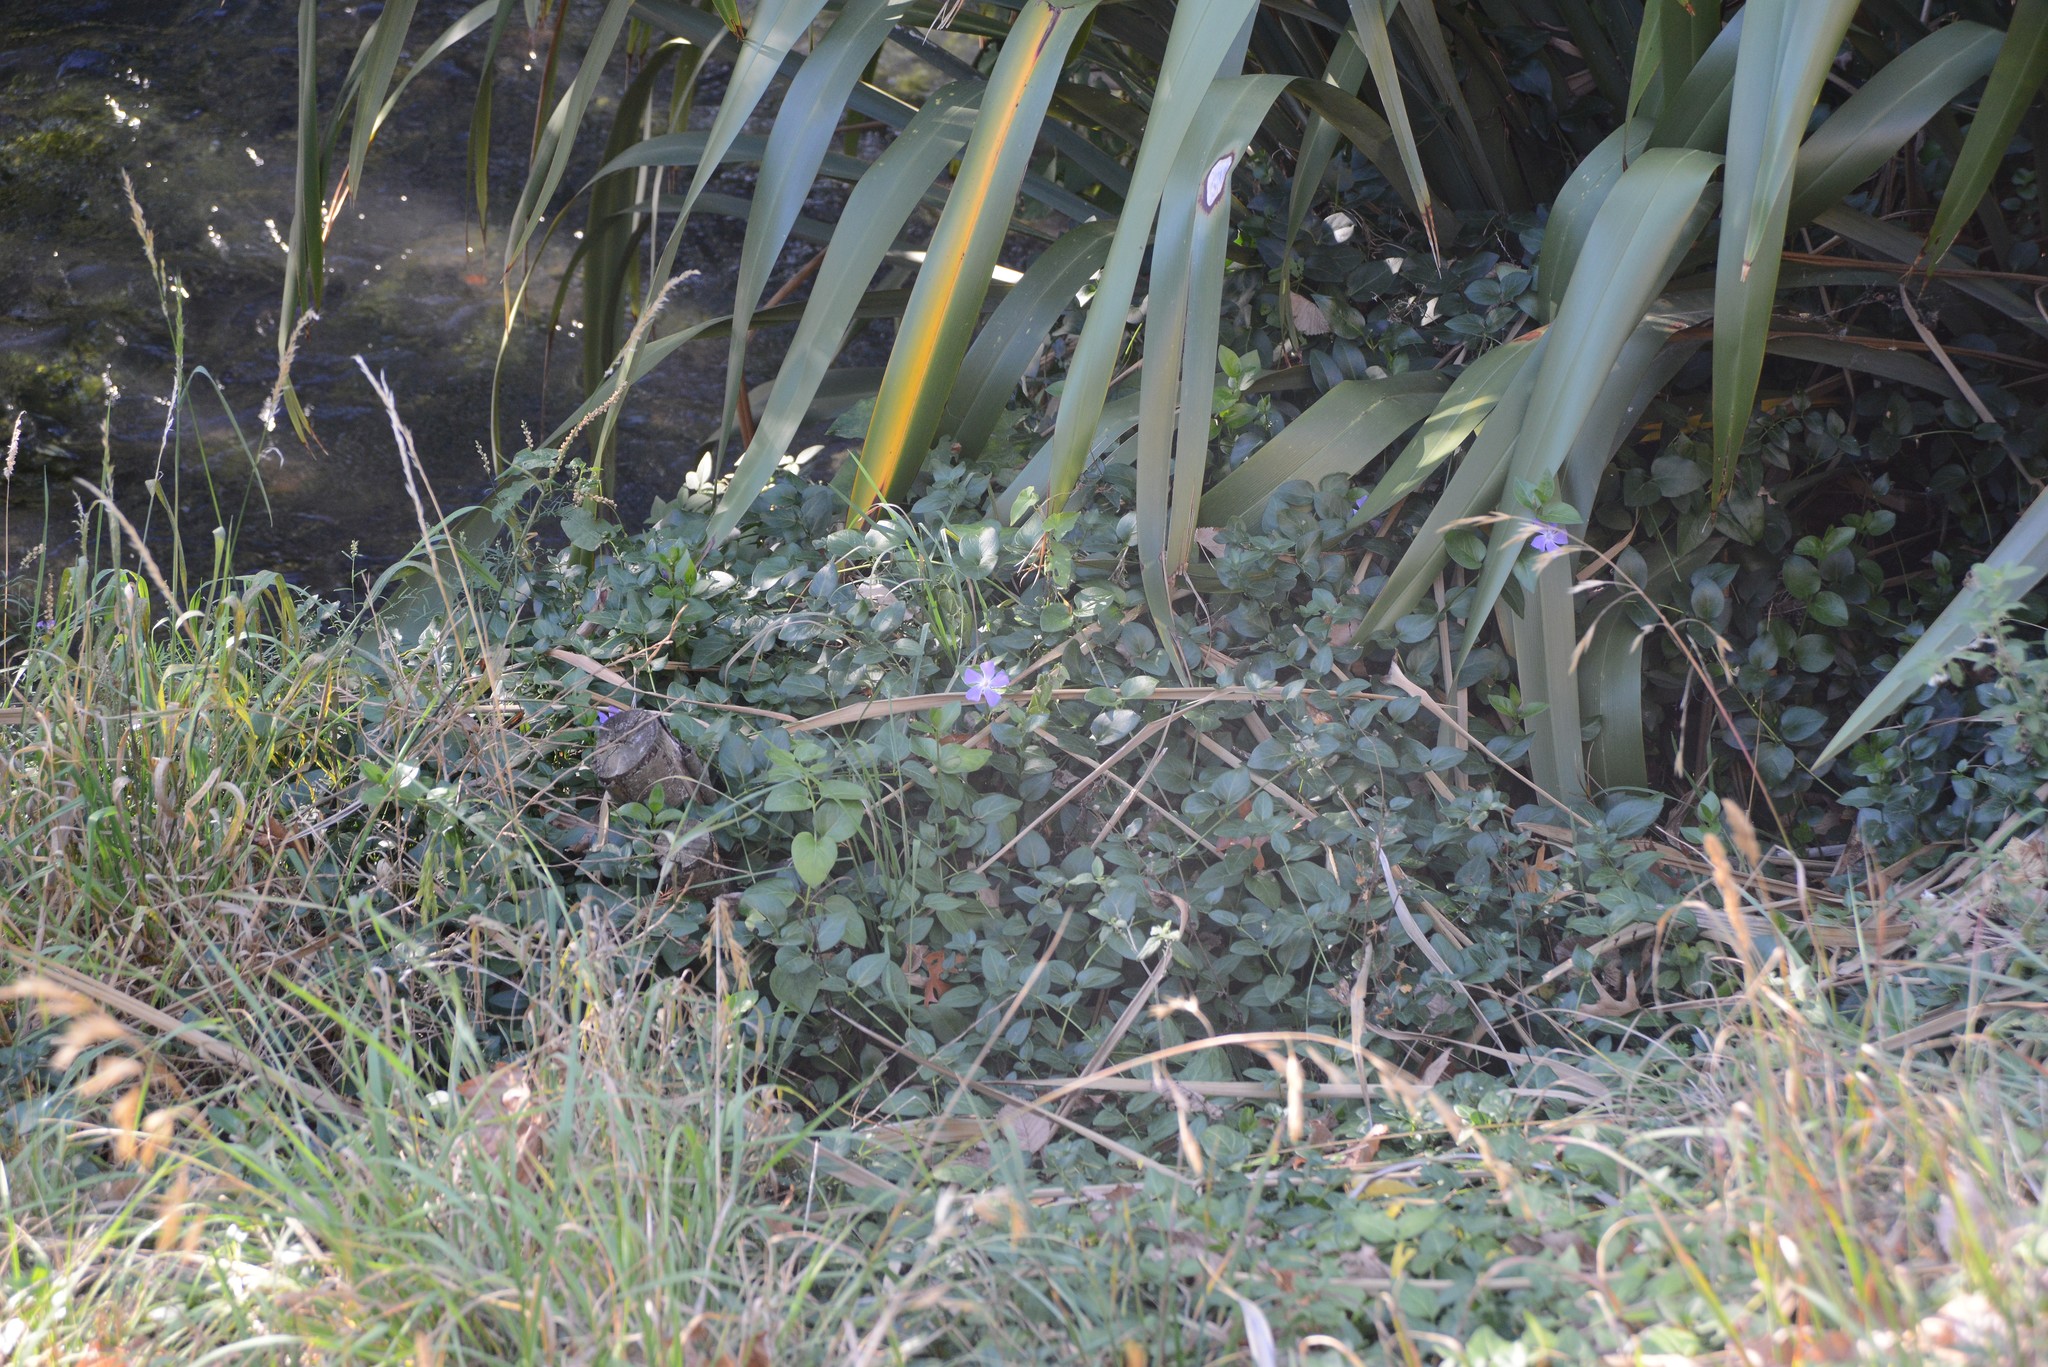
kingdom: Plantae
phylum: Tracheophyta
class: Magnoliopsida
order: Gentianales
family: Apocynaceae
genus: Vinca
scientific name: Vinca major
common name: Greater periwinkle
